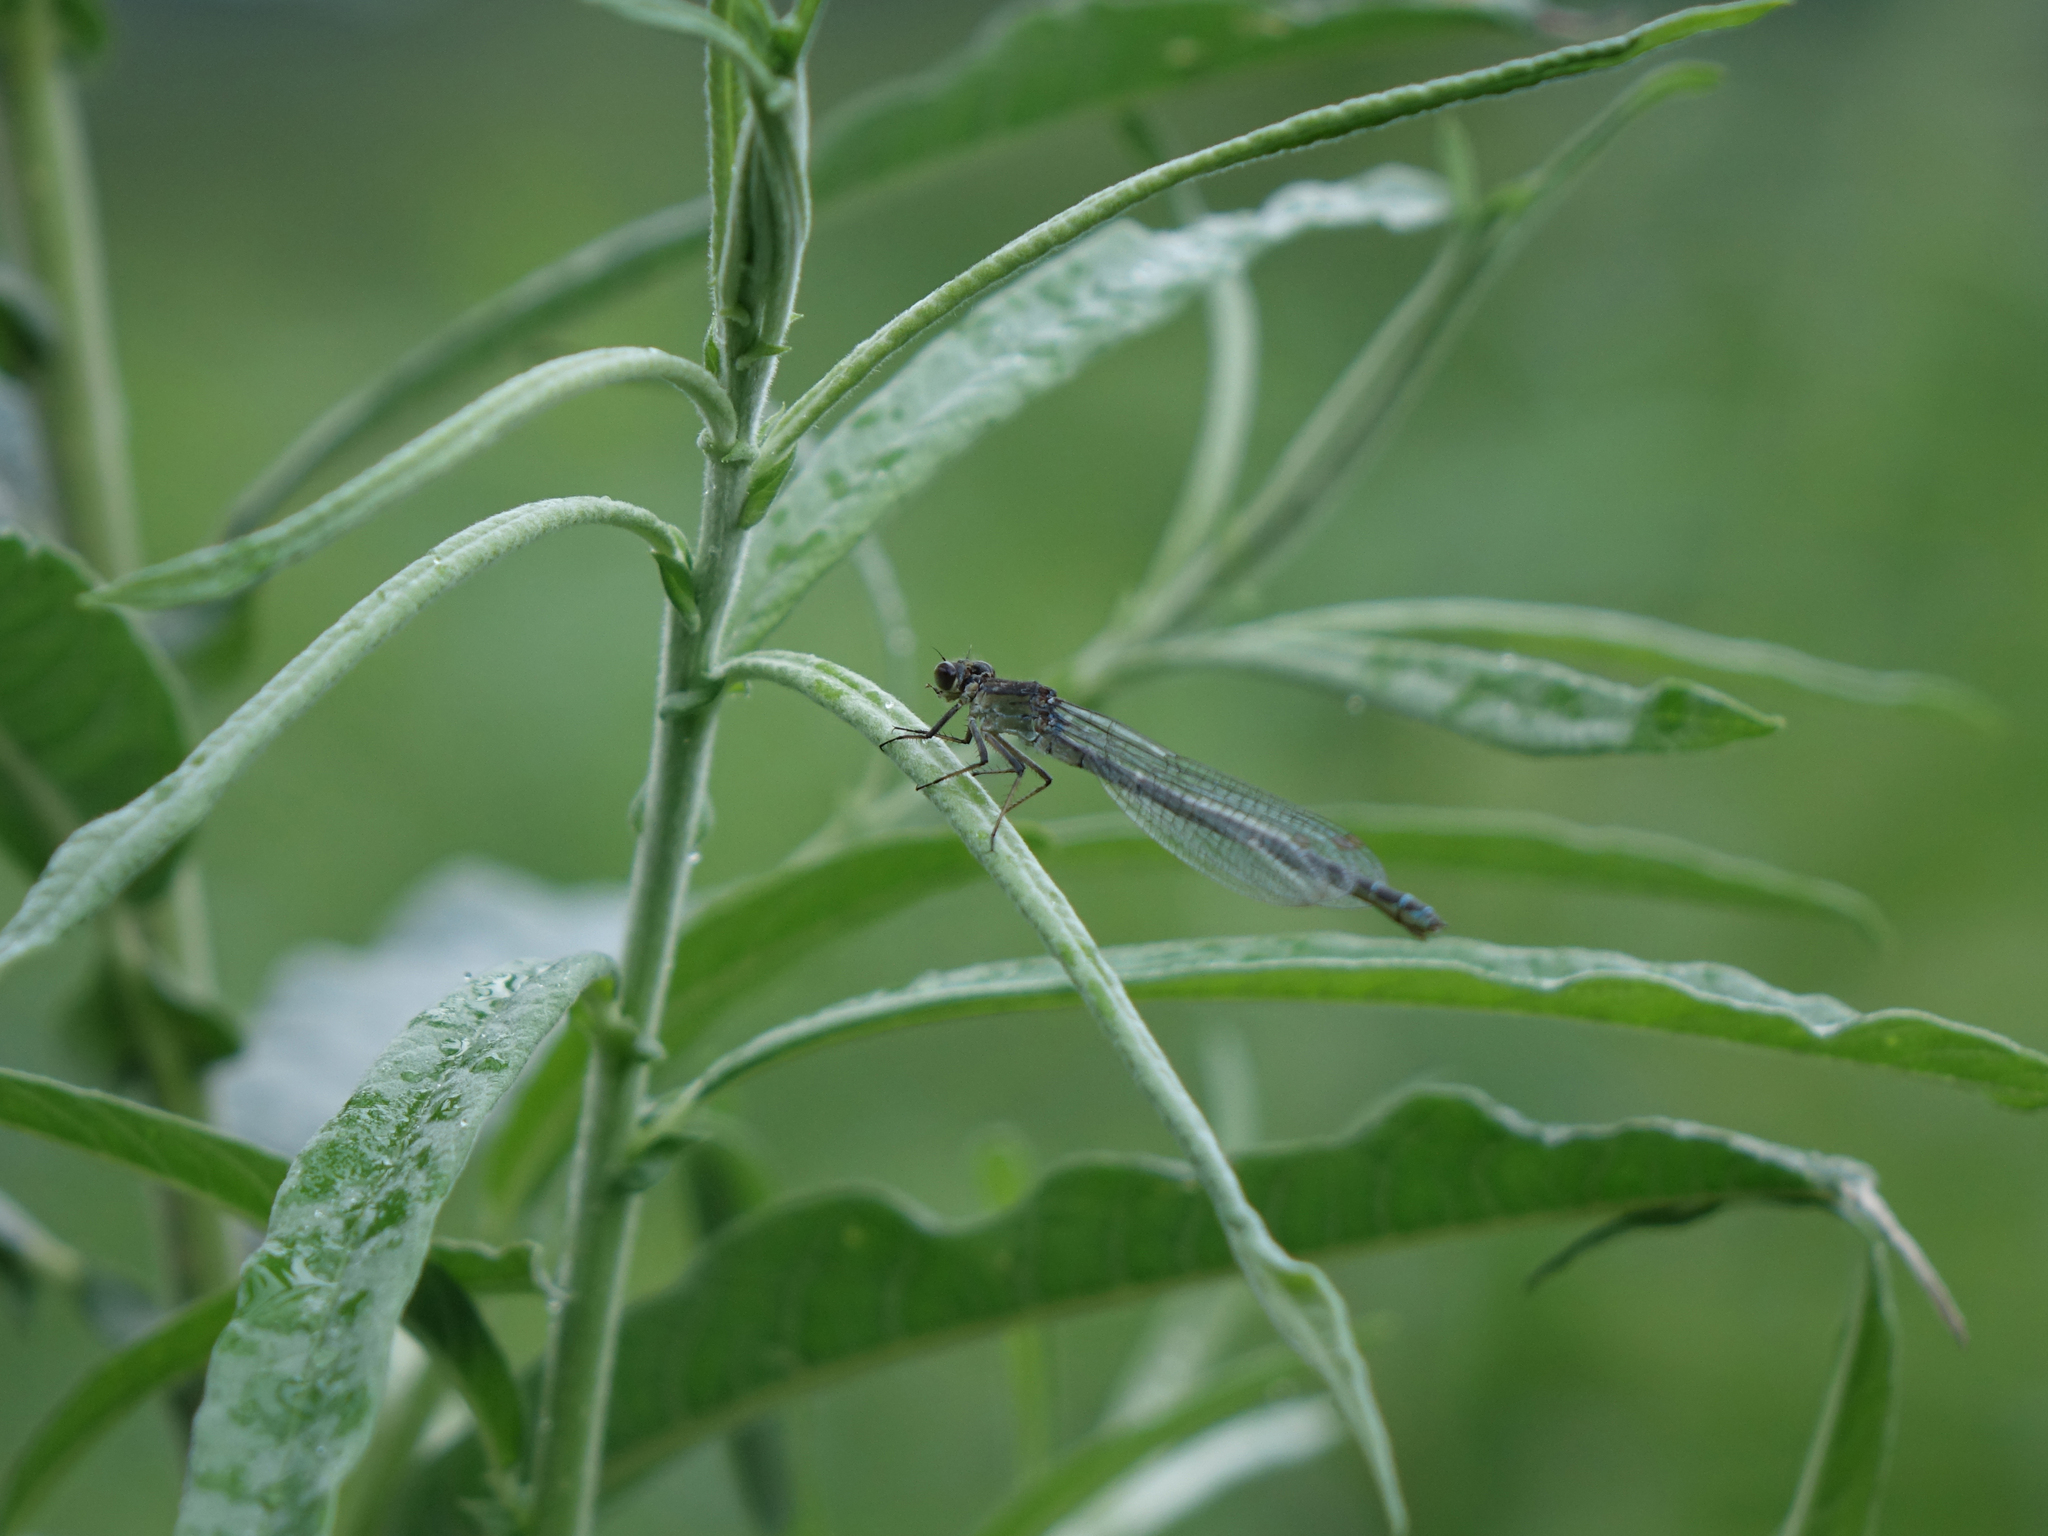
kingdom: Animalia
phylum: Arthropoda
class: Insecta
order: Odonata
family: Coenagrionidae
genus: Erythromma
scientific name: Erythromma najas
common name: Red-eyed damselfly
